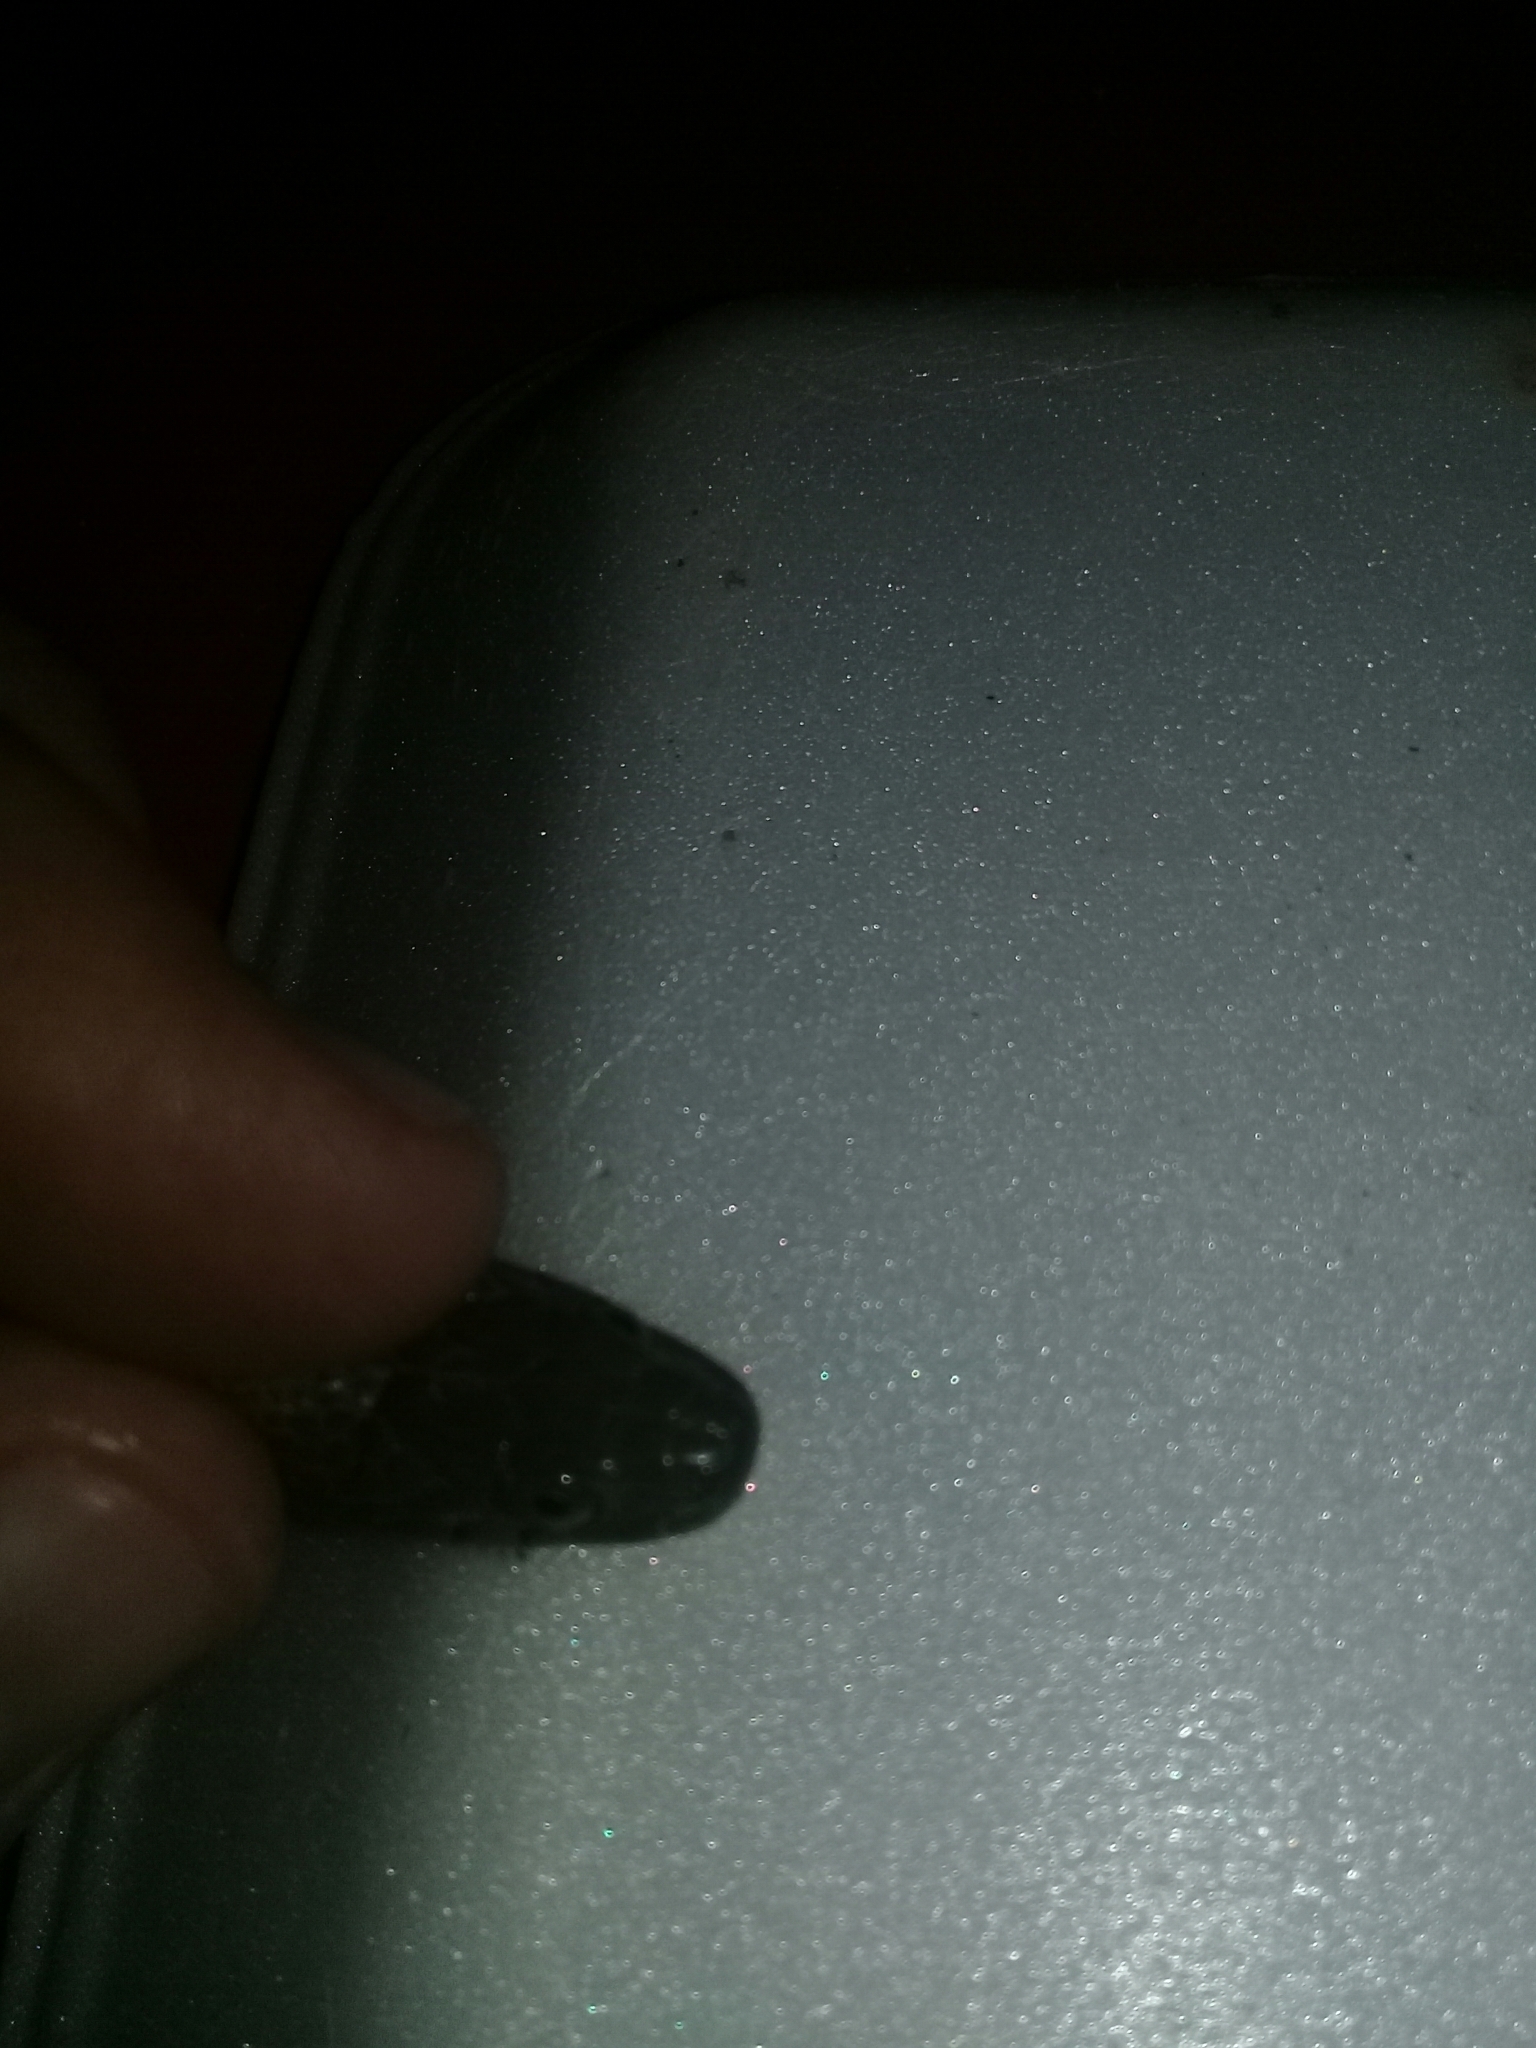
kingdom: Animalia
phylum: Chordata
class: Squamata
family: Colubridae
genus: Thamnophis
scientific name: Thamnophis validus
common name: West coast garter snake
